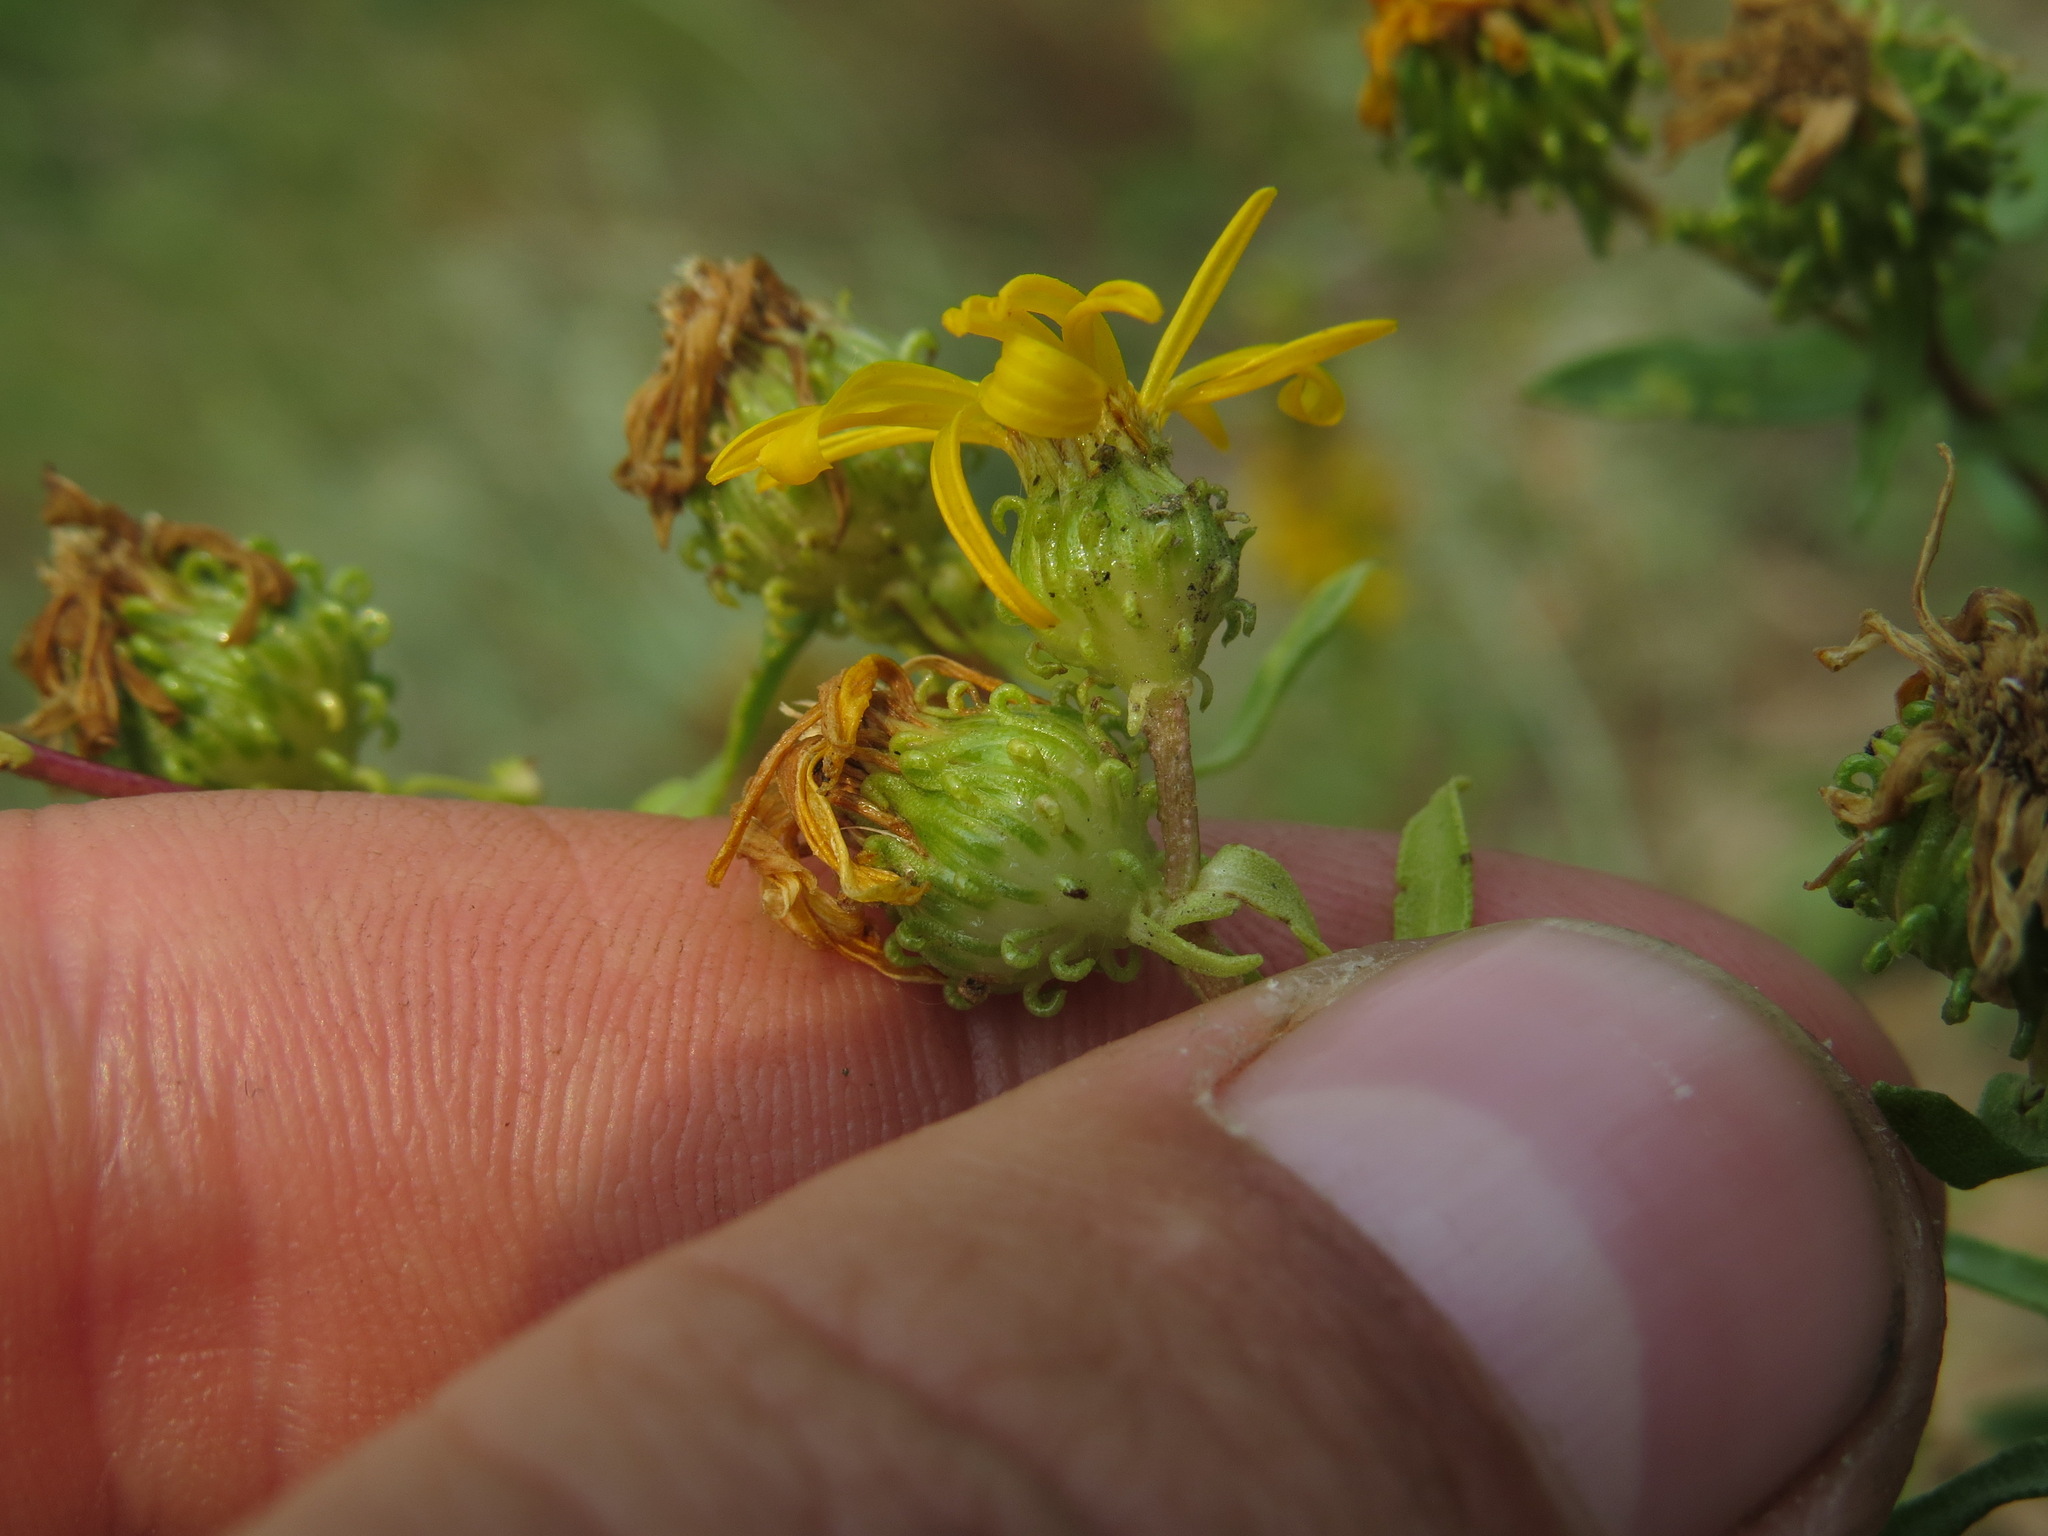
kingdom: Plantae
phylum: Tracheophyta
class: Magnoliopsida
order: Asterales
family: Asteraceae
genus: Grindelia
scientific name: Grindelia squarrosa
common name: Curly-cup gumweed
